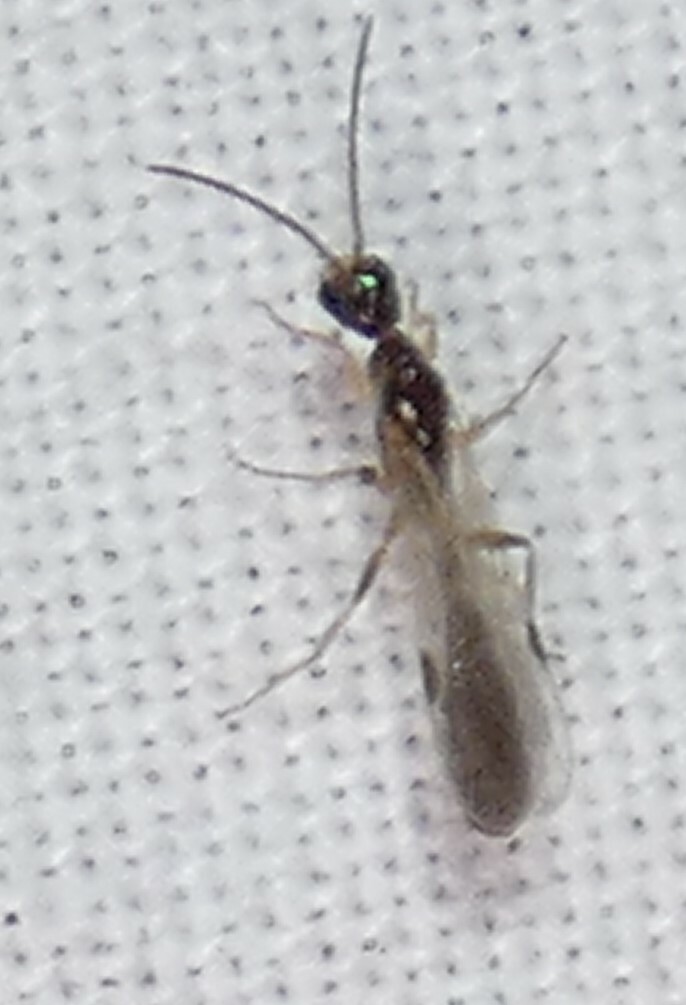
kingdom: Animalia
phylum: Arthropoda
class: Insecta
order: Hymenoptera
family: Formicidae
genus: Pseudomyrmex
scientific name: Pseudomyrmex ejectus
